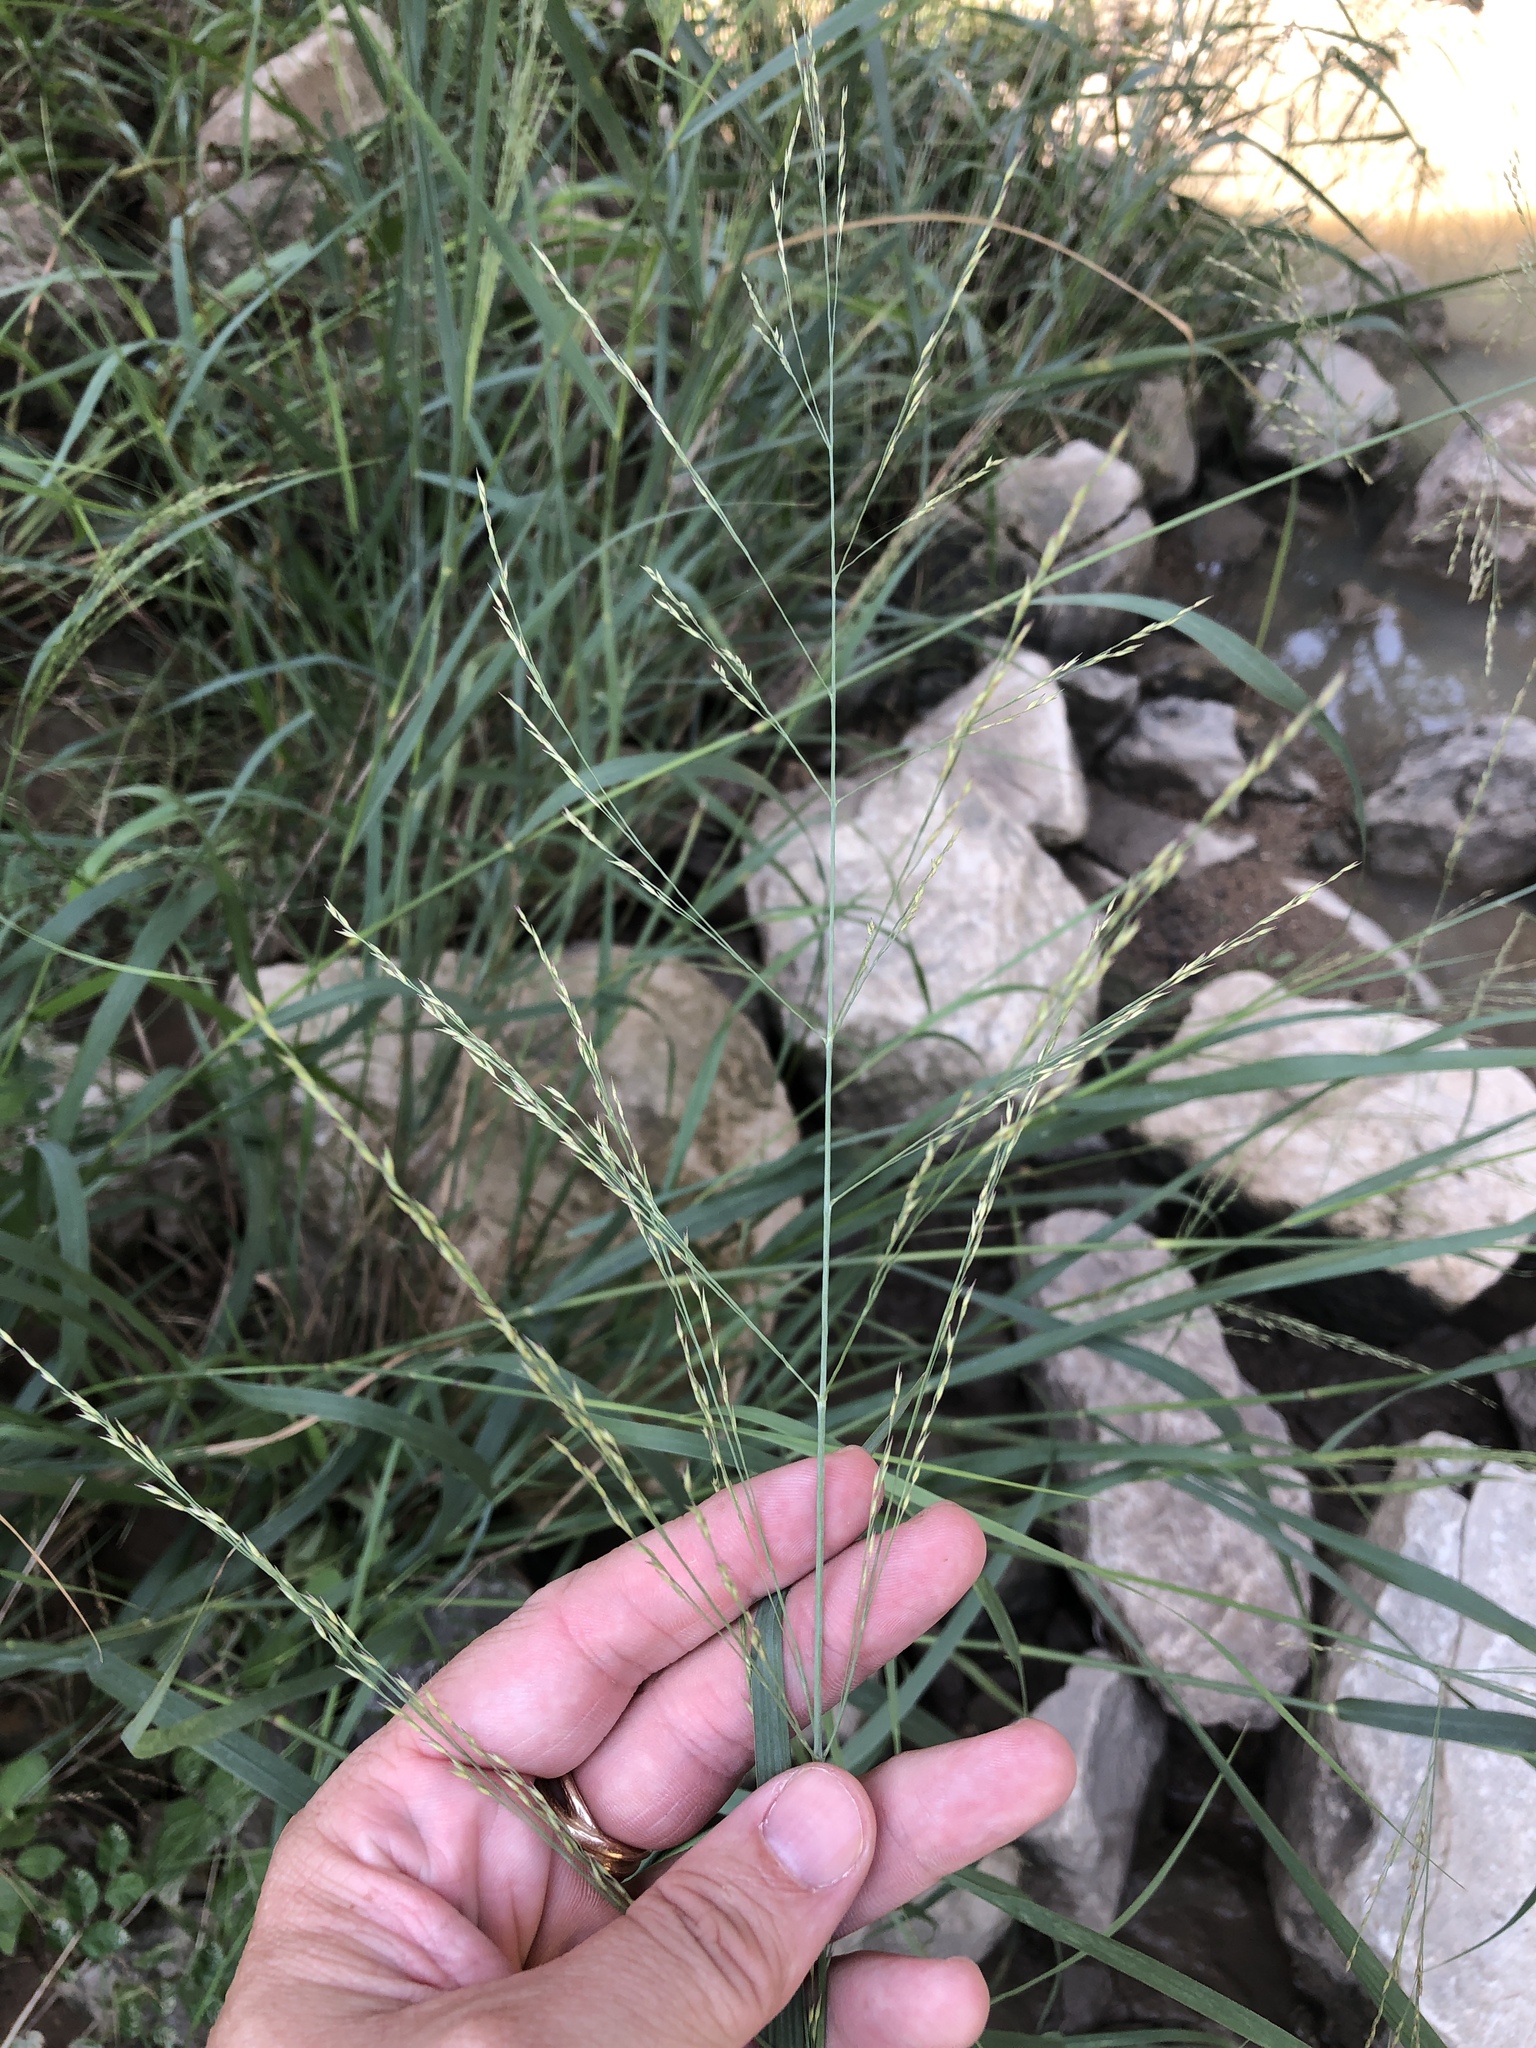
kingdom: Plantae
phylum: Tracheophyta
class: Liliopsida
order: Poales
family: Poaceae
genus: Panicum
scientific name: Panicum virgatum
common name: Switchgrass
